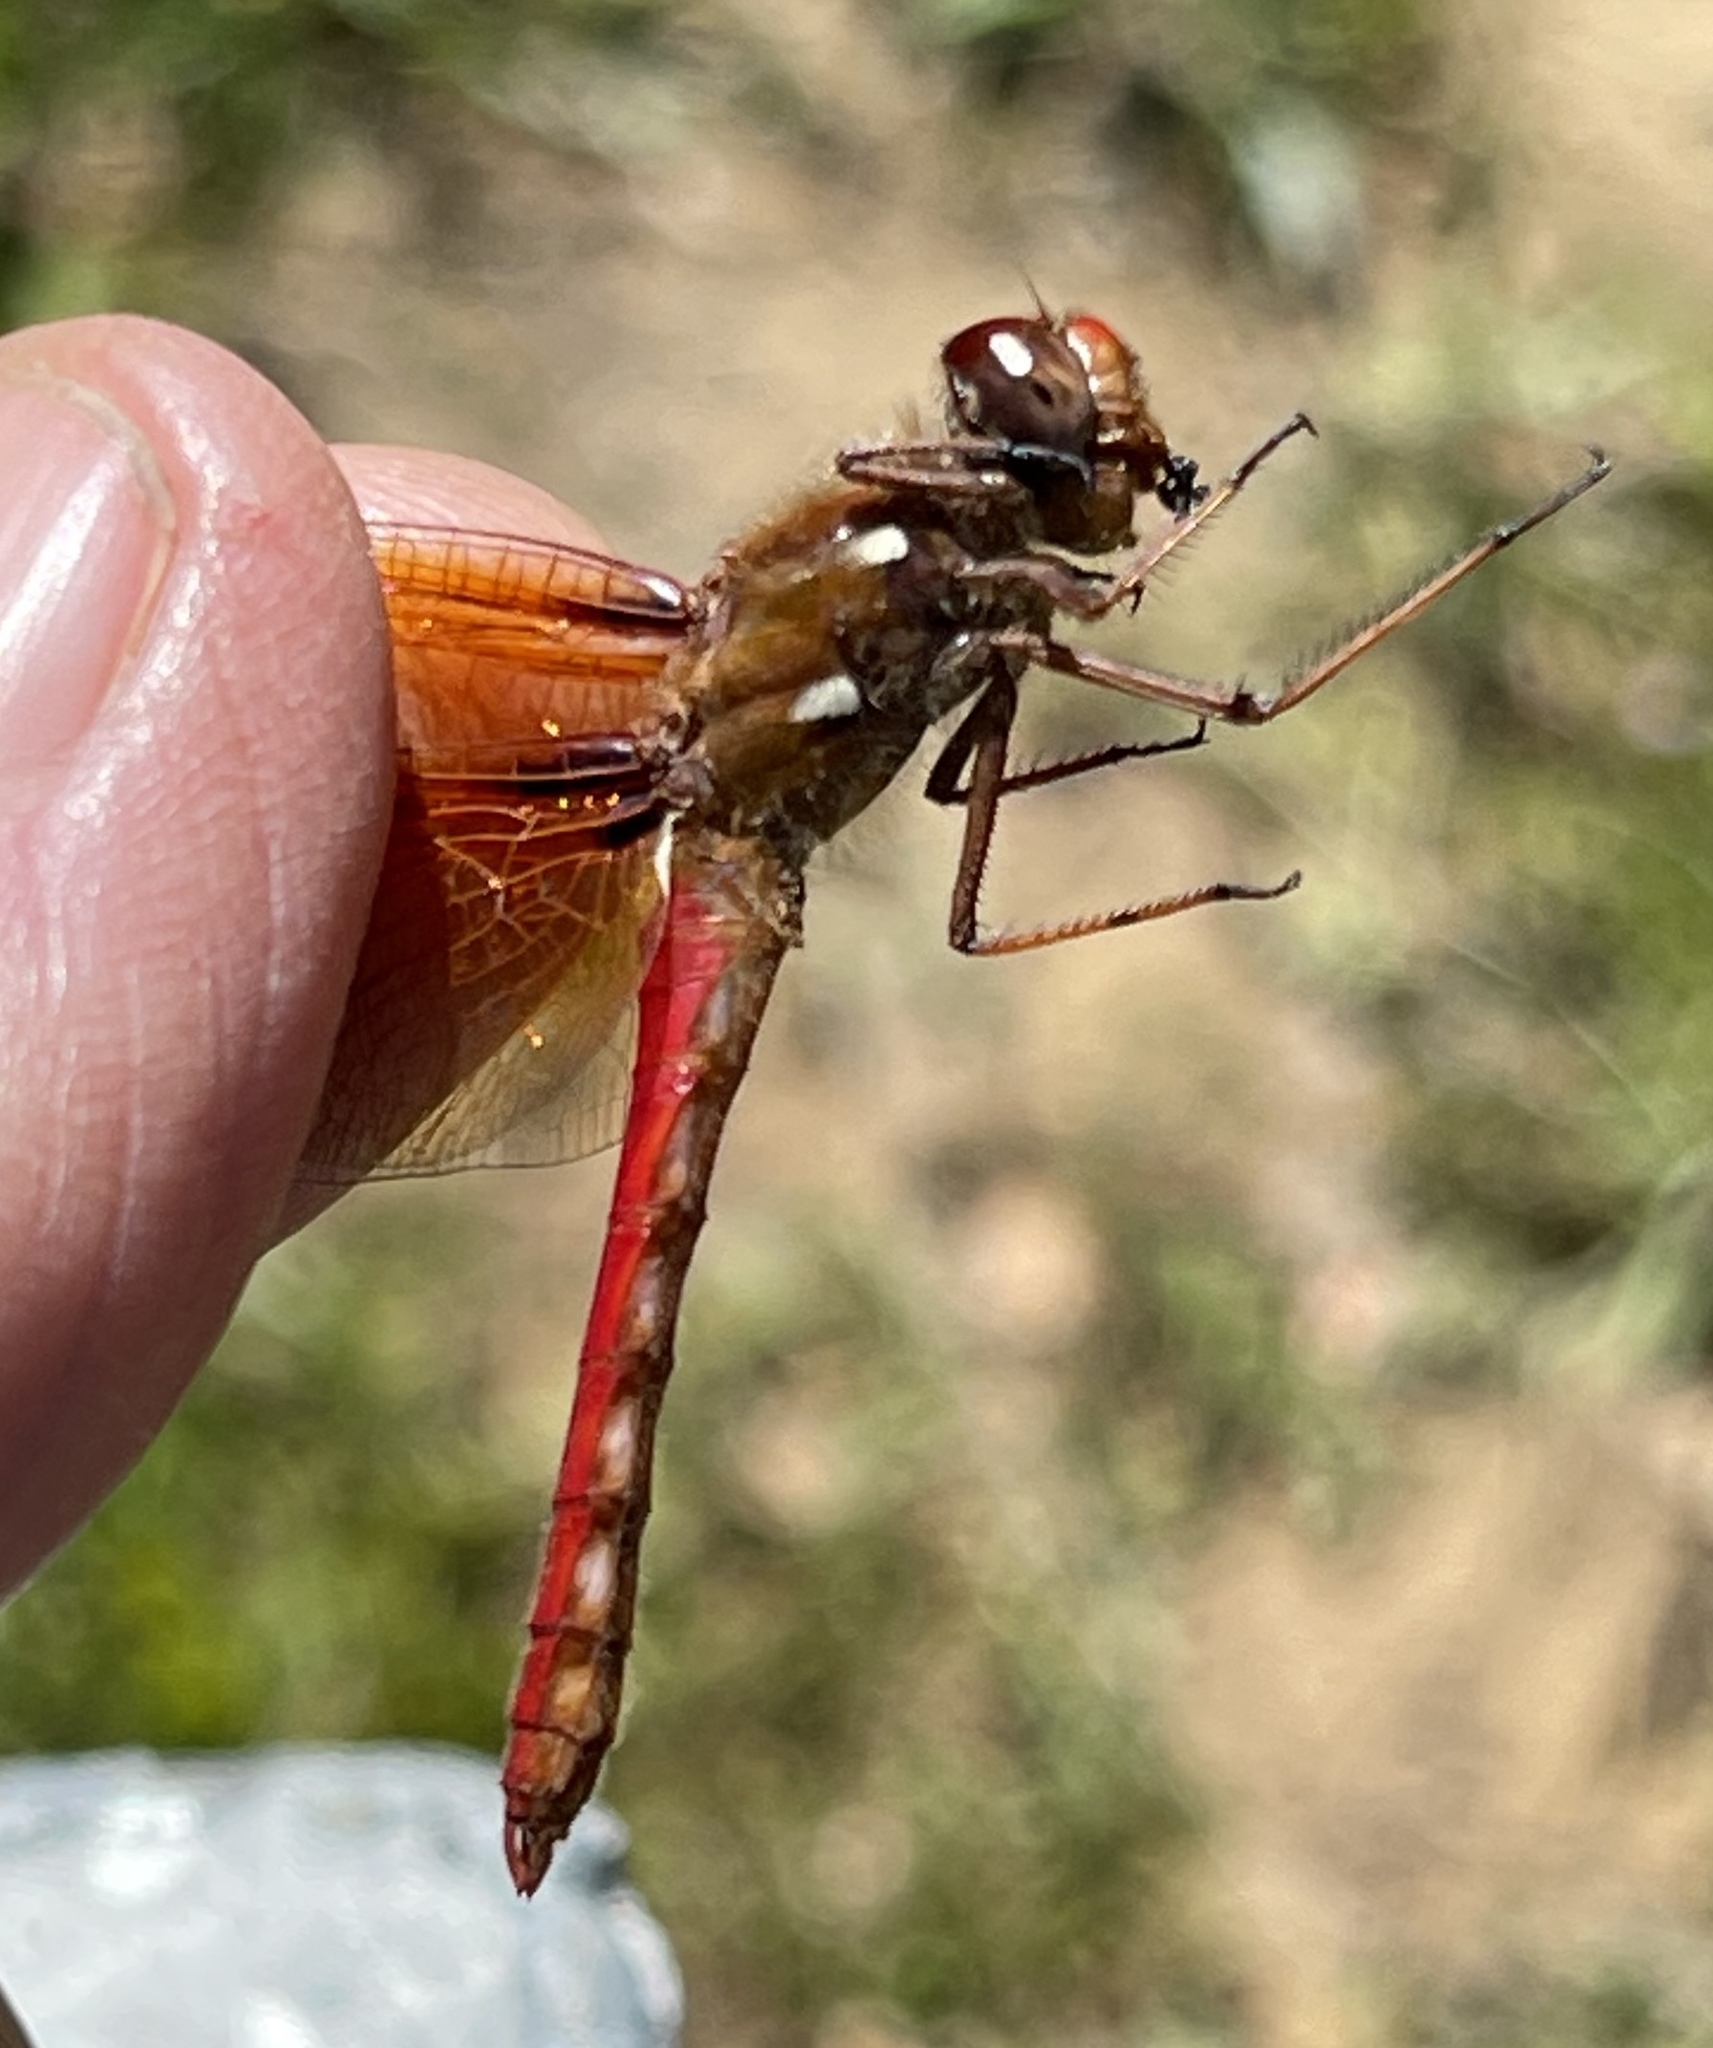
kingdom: Animalia
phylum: Arthropoda
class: Insecta
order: Odonata
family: Libellulidae
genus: Sympetrum
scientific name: Sympetrum illotum
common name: Cardinal meadowhawk
